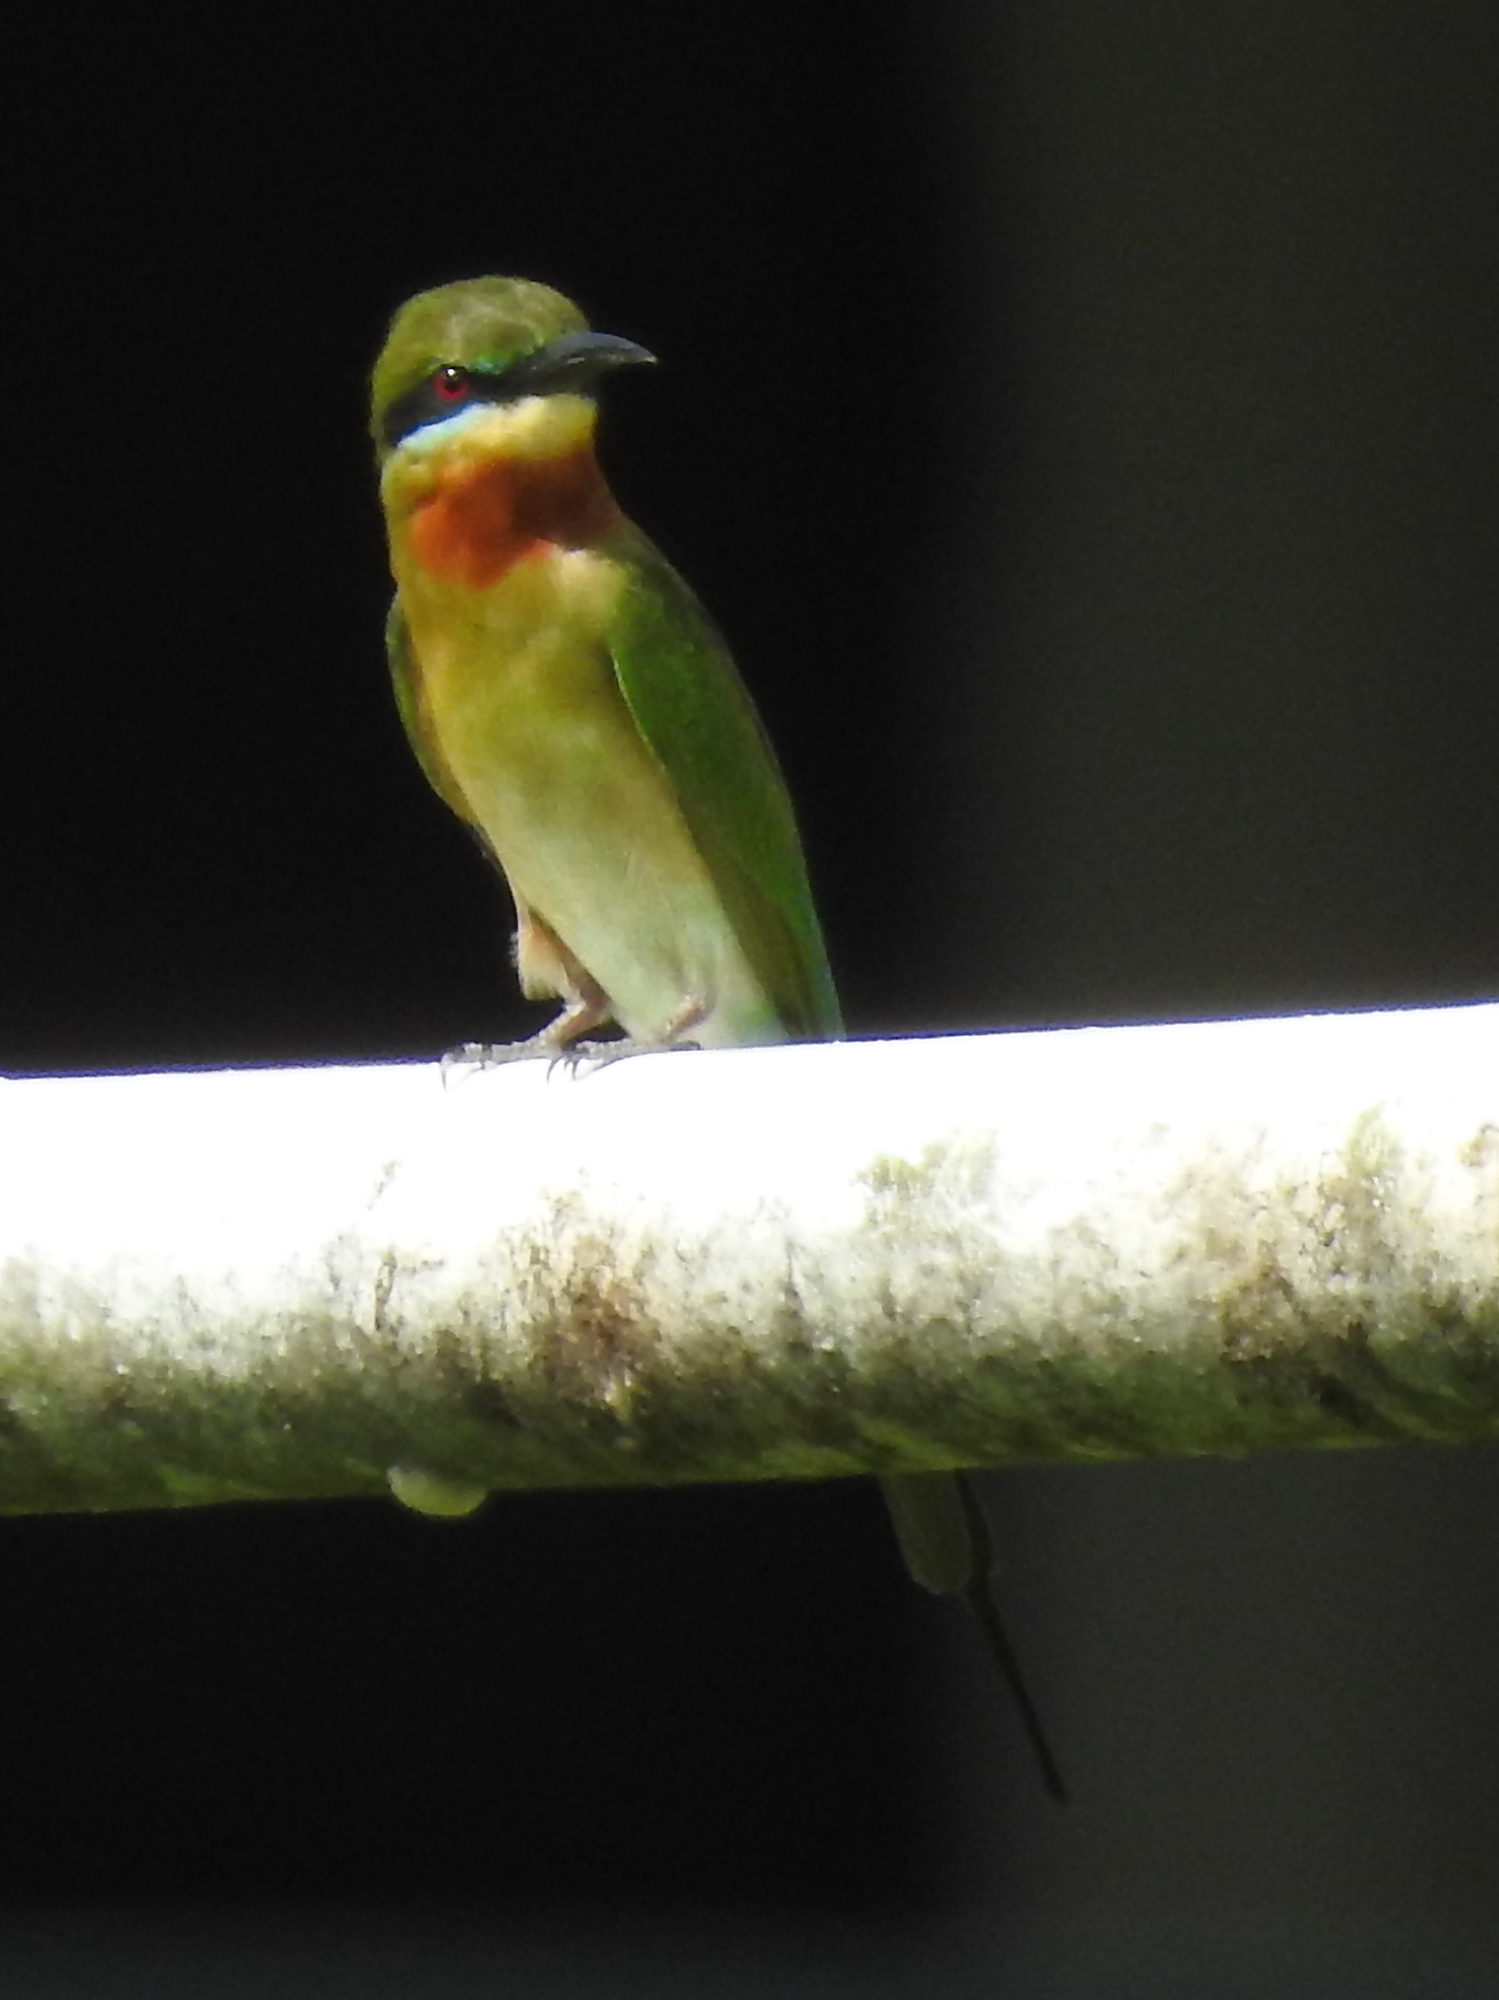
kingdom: Animalia
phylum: Chordata
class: Aves
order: Coraciiformes
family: Meropidae
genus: Merops
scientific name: Merops philippinus
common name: Blue-tailed bee-eater
